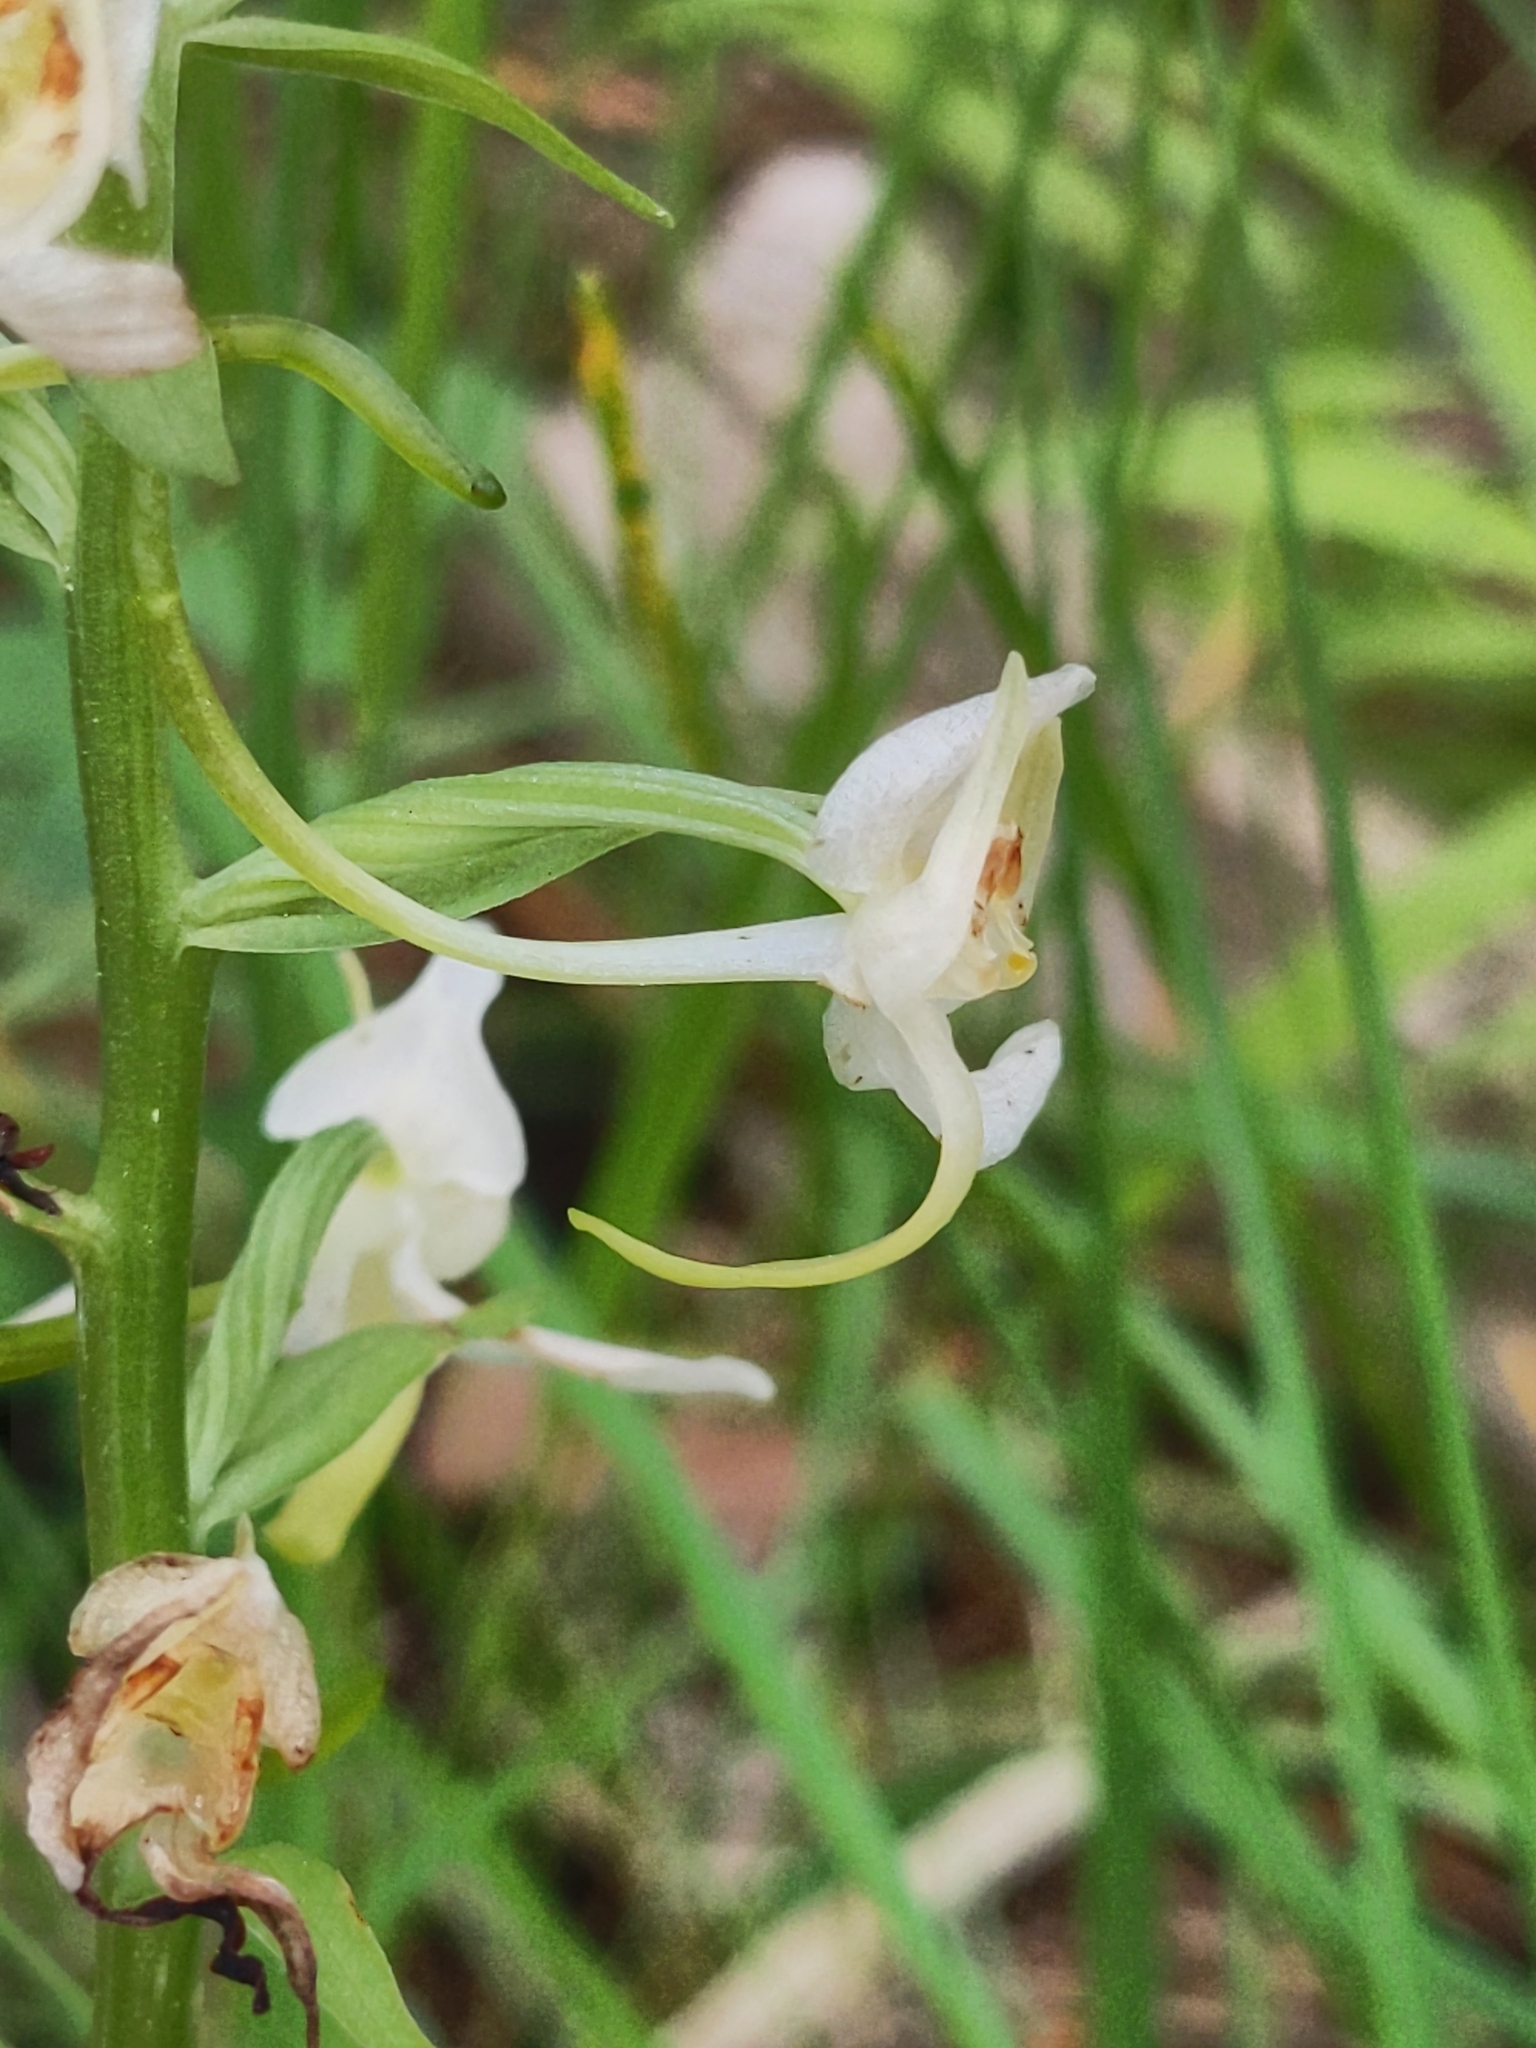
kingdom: Plantae
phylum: Tracheophyta
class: Liliopsida
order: Asparagales
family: Orchidaceae
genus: Platanthera
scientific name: Platanthera chlorantha
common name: Greater butterfly-orchid
